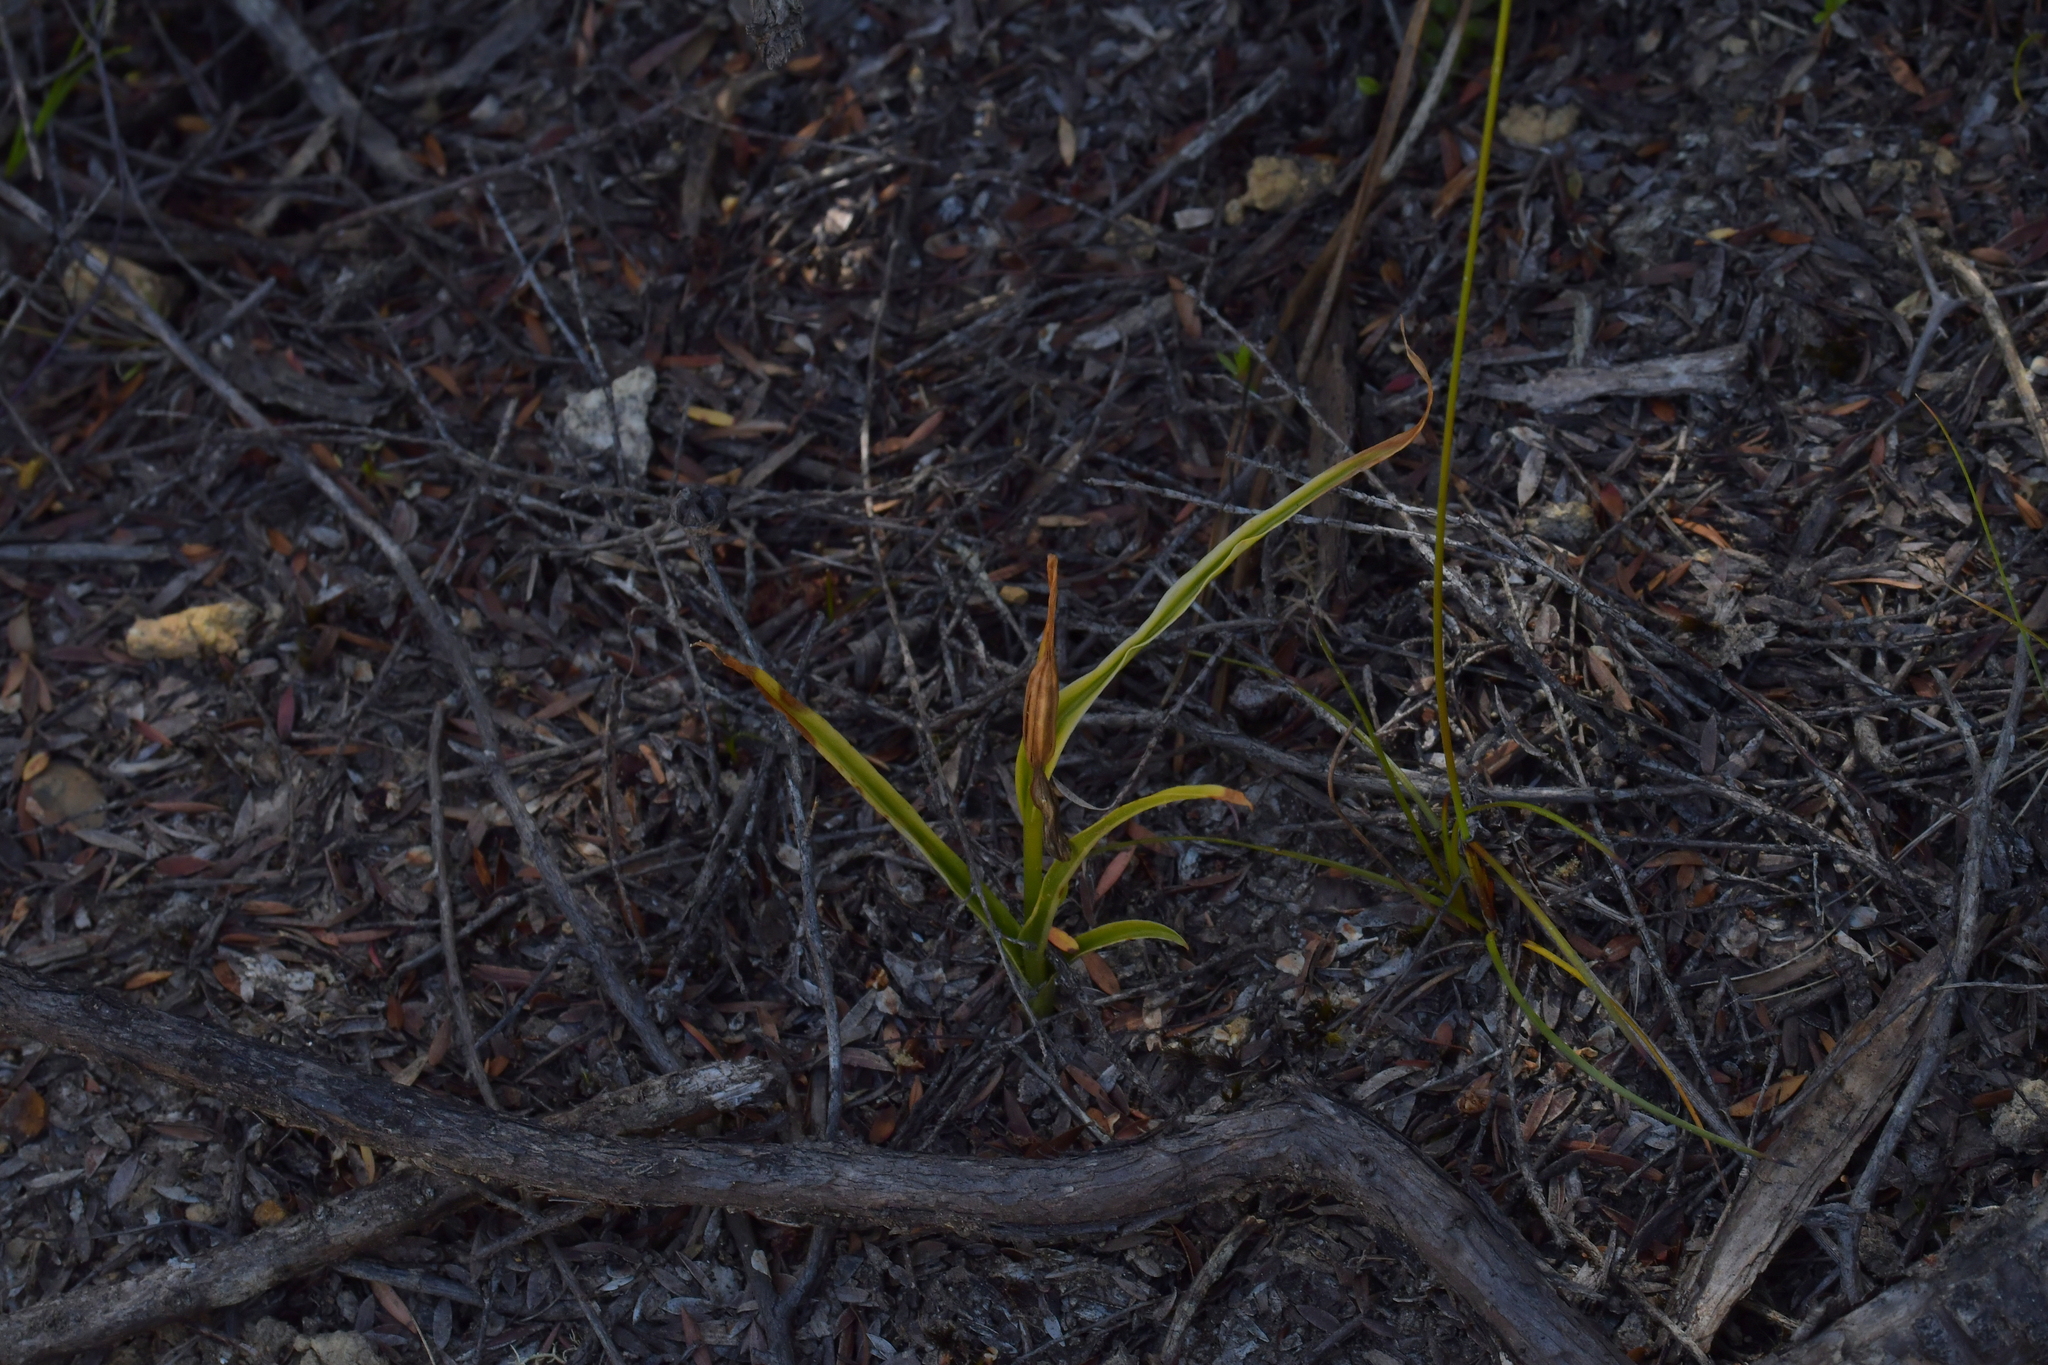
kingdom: Plantae
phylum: Tracheophyta
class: Liliopsida
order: Asparagales
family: Orchidaceae
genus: Pterostylis
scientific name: Pterostylis graminea
